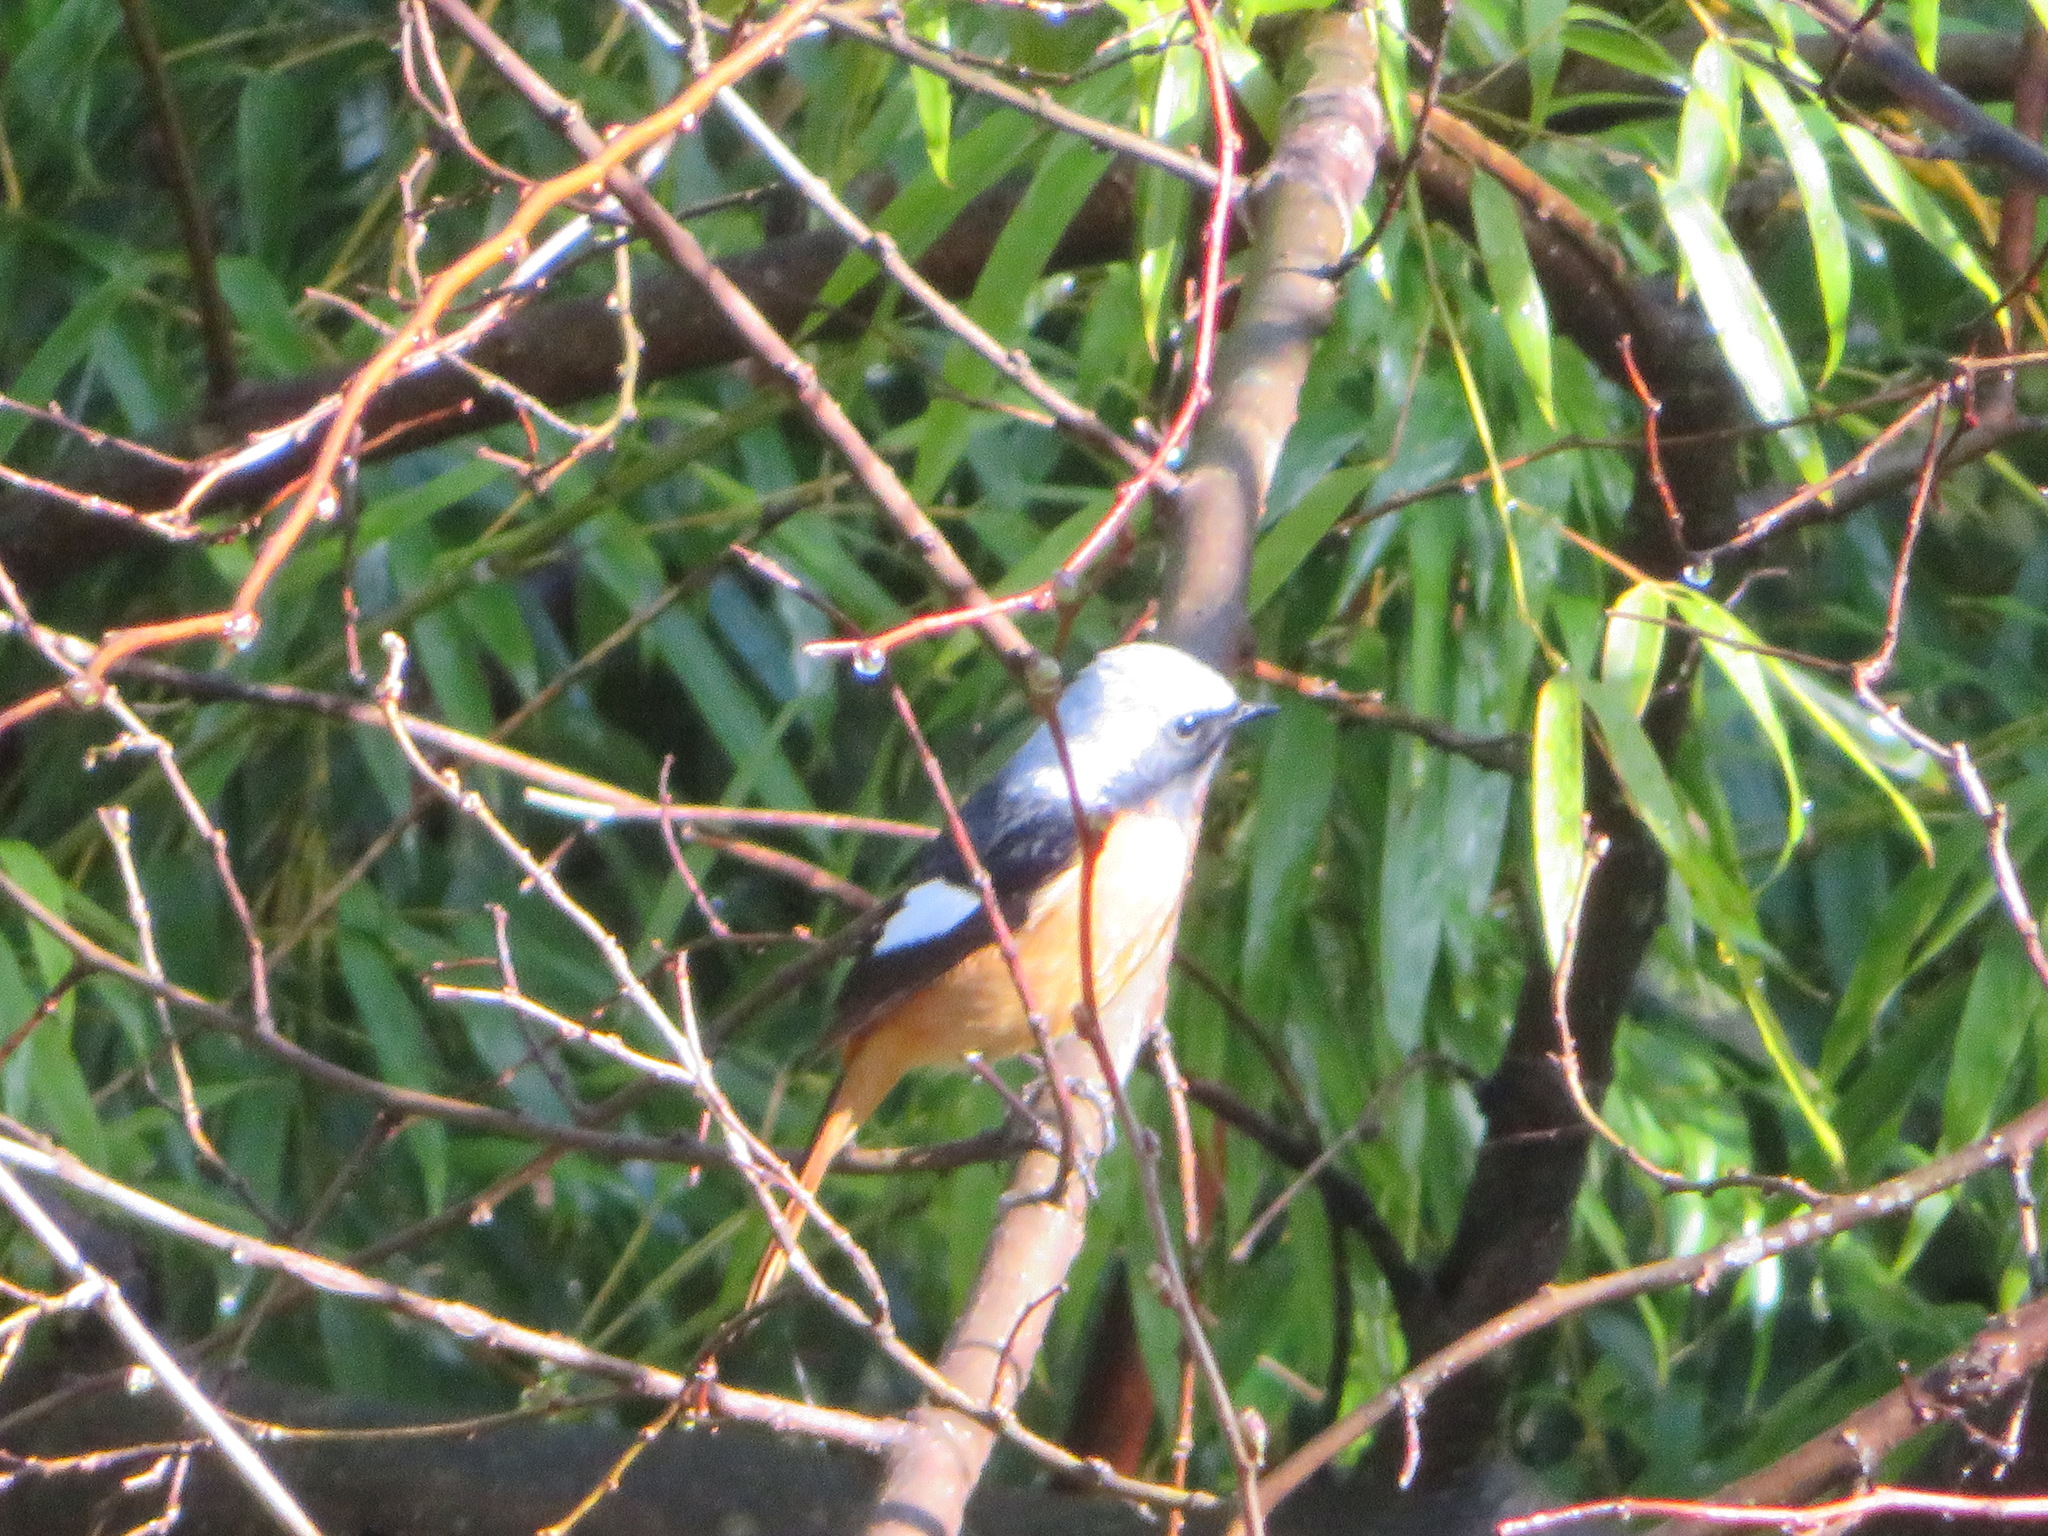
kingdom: Animalia
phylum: Chordata
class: Aves
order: Passeriformes
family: Muscicapidae
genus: Phoenicurus
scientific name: Phoenicurus auroreus
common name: Daurian redstart
